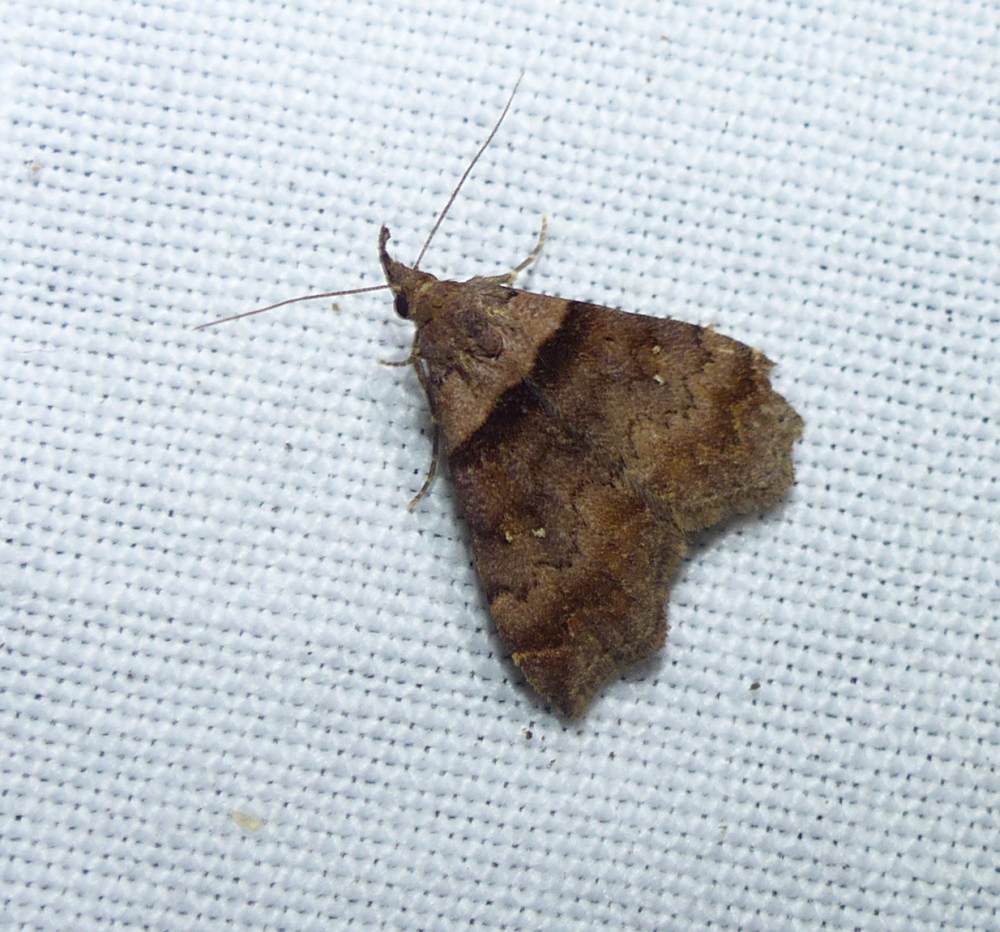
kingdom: Animalia
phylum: Arthropoda
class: Insecta
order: Lepidoptera
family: Erebidae
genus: Lascoria
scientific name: Lascoria ambigualis
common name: Ambiguous moth
